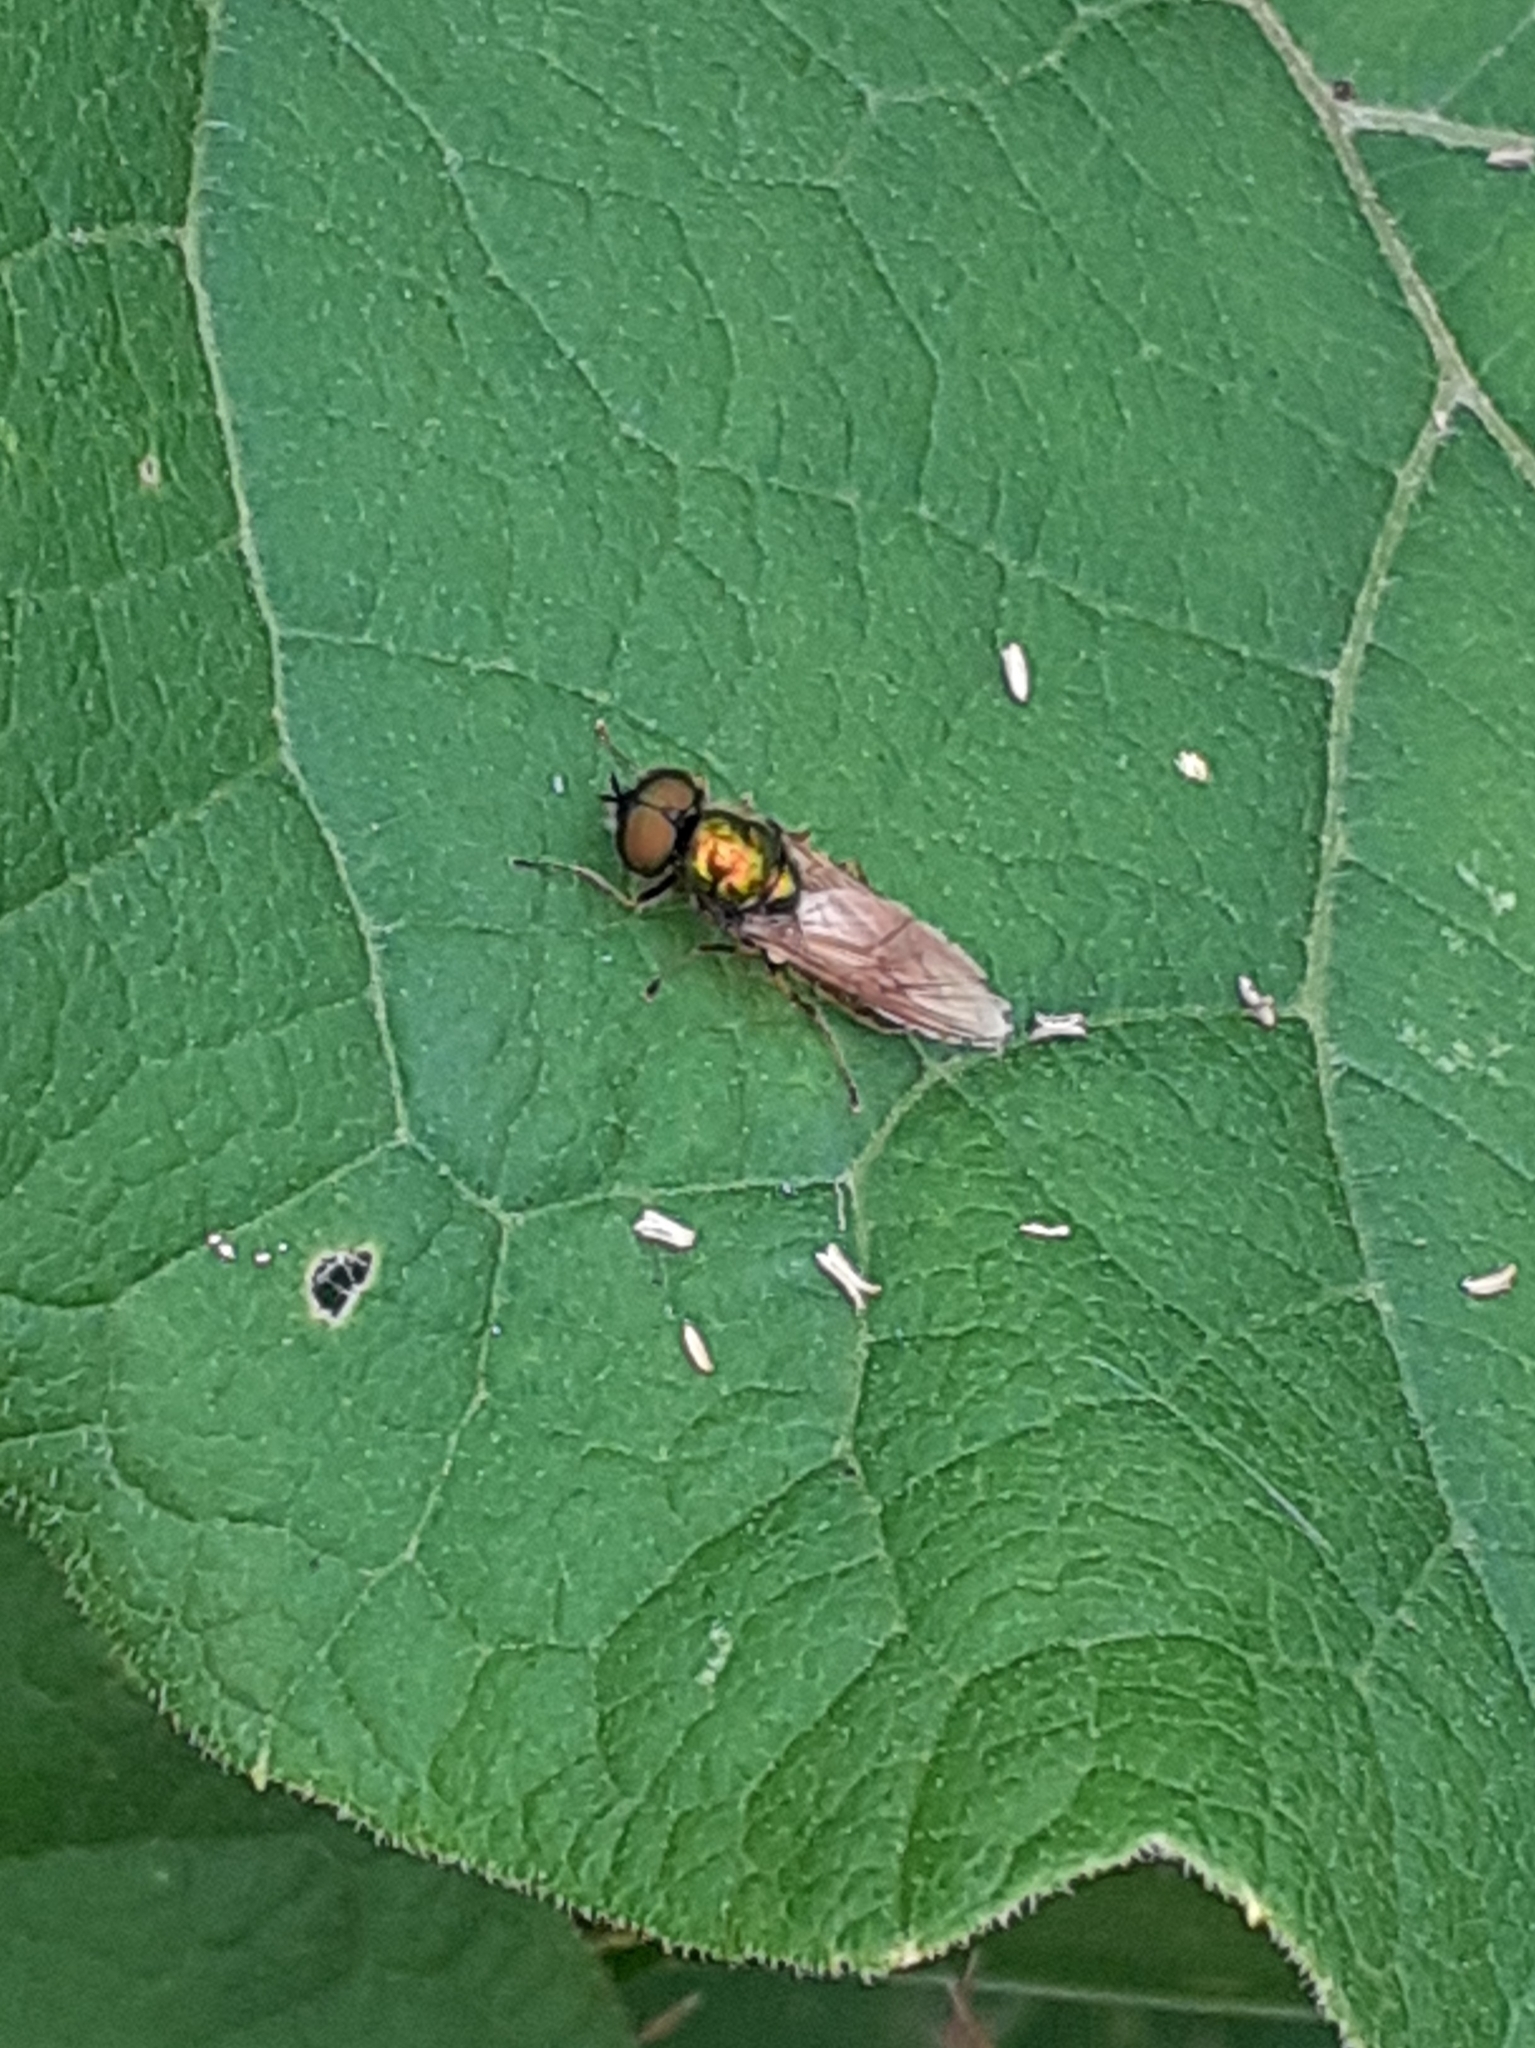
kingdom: Animalia
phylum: Arthropoda
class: Insecta
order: Diptera
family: Stratiomyidae
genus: Chloromyia
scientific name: Chloromyia formosa
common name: Soldier fly
